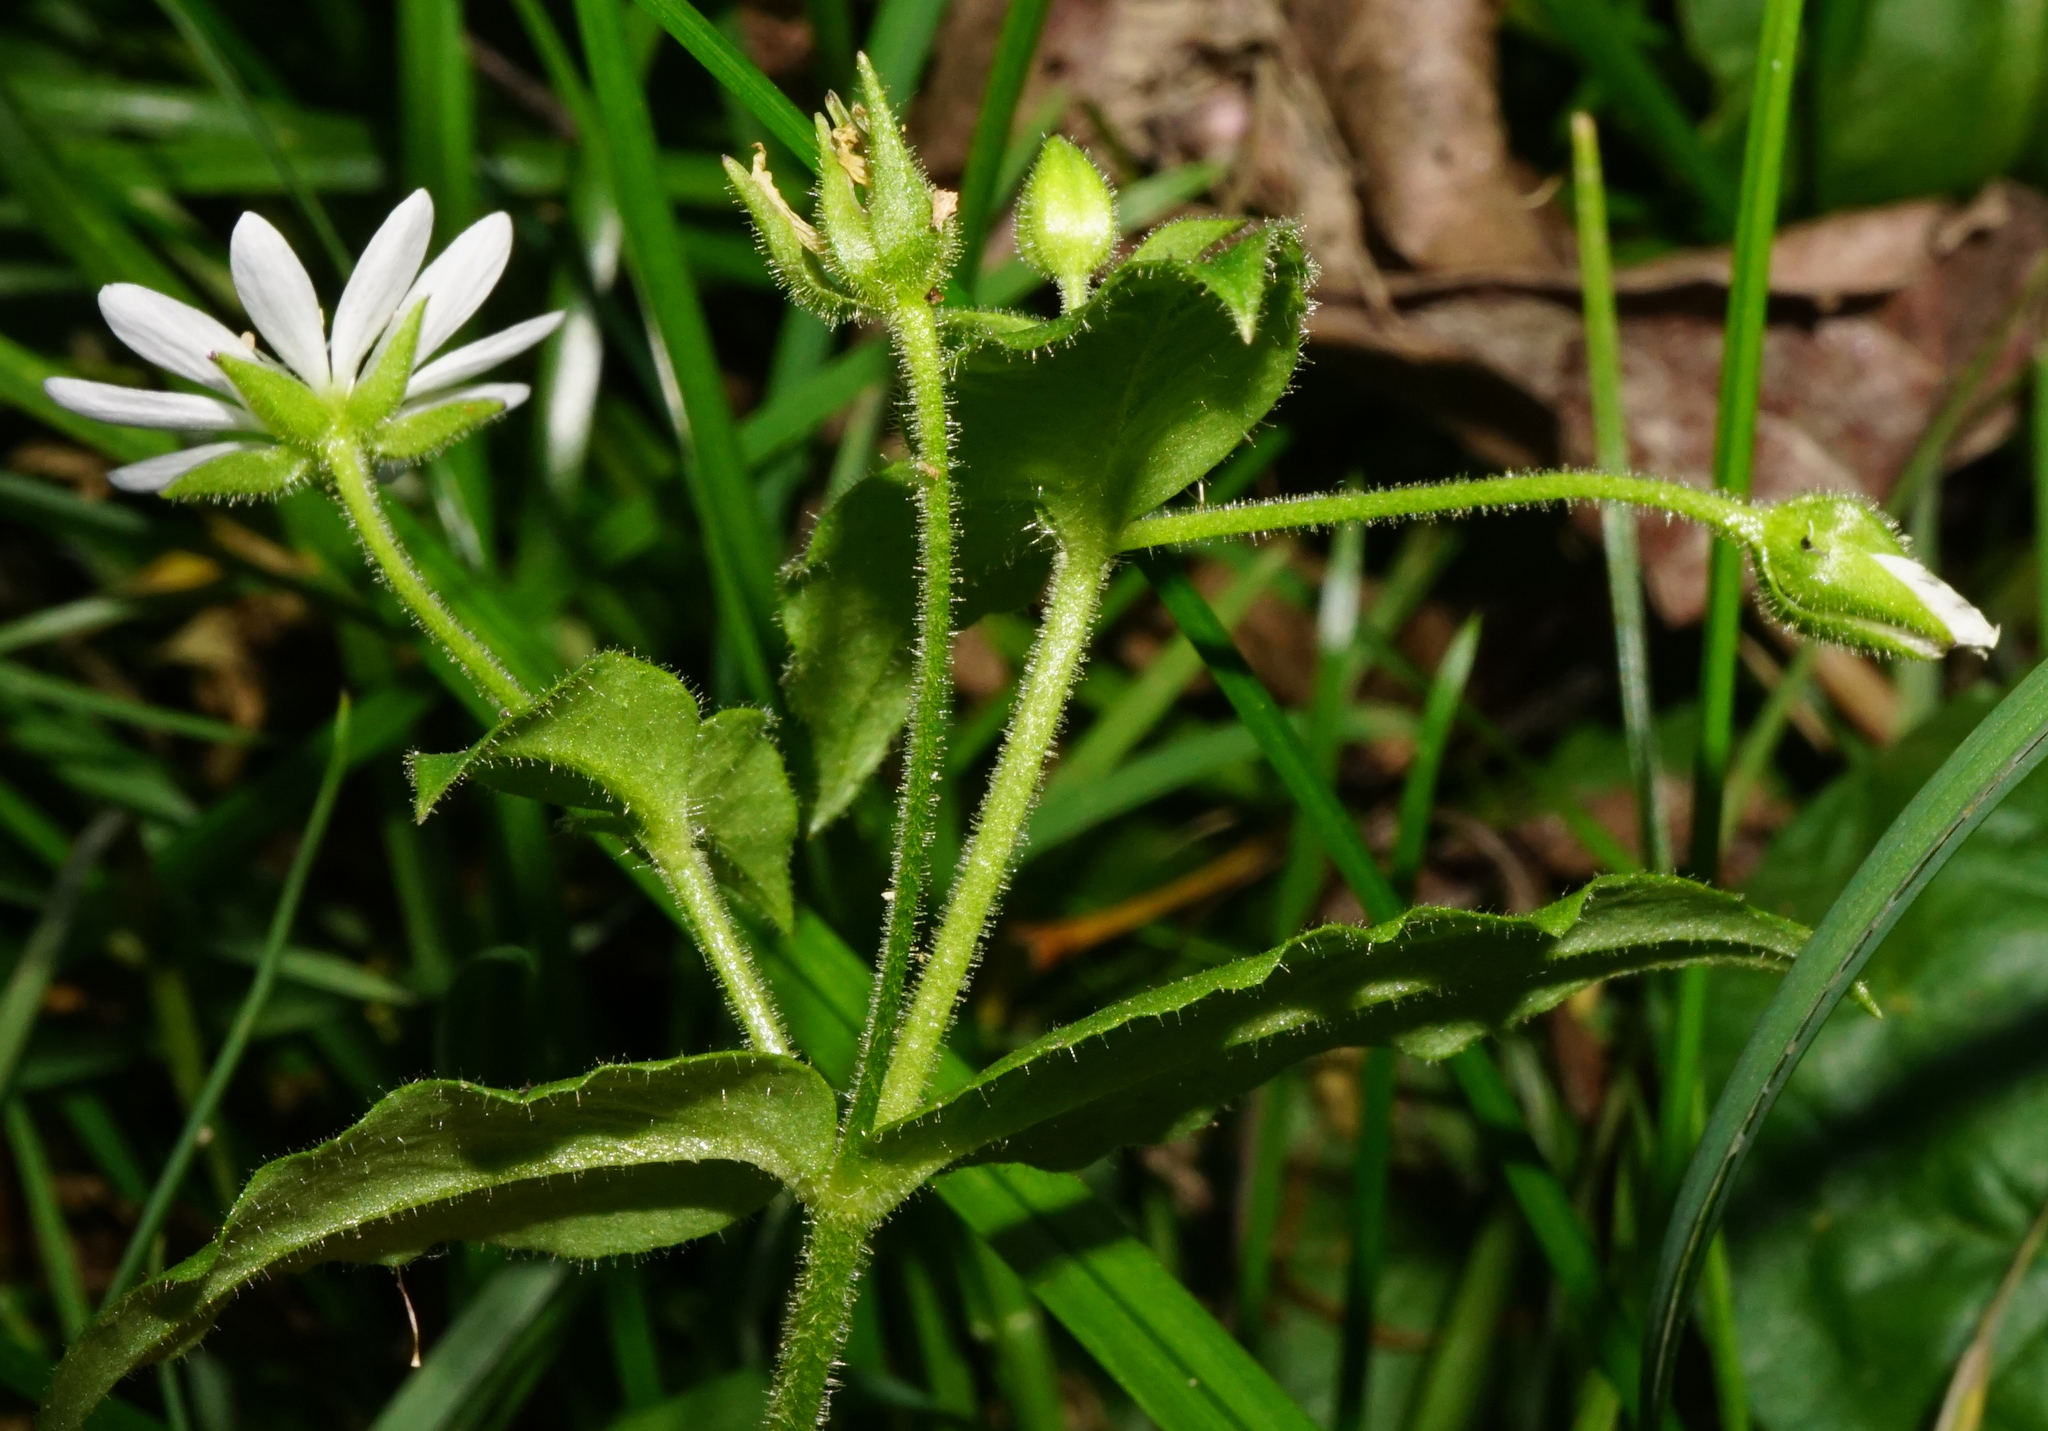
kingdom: Plantae
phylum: Tracheophyta
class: Magnoliopsida
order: Caryophyllales
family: Caryophyllaceae
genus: Stellaria
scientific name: Stellaria aquatica
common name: Water chickweed
